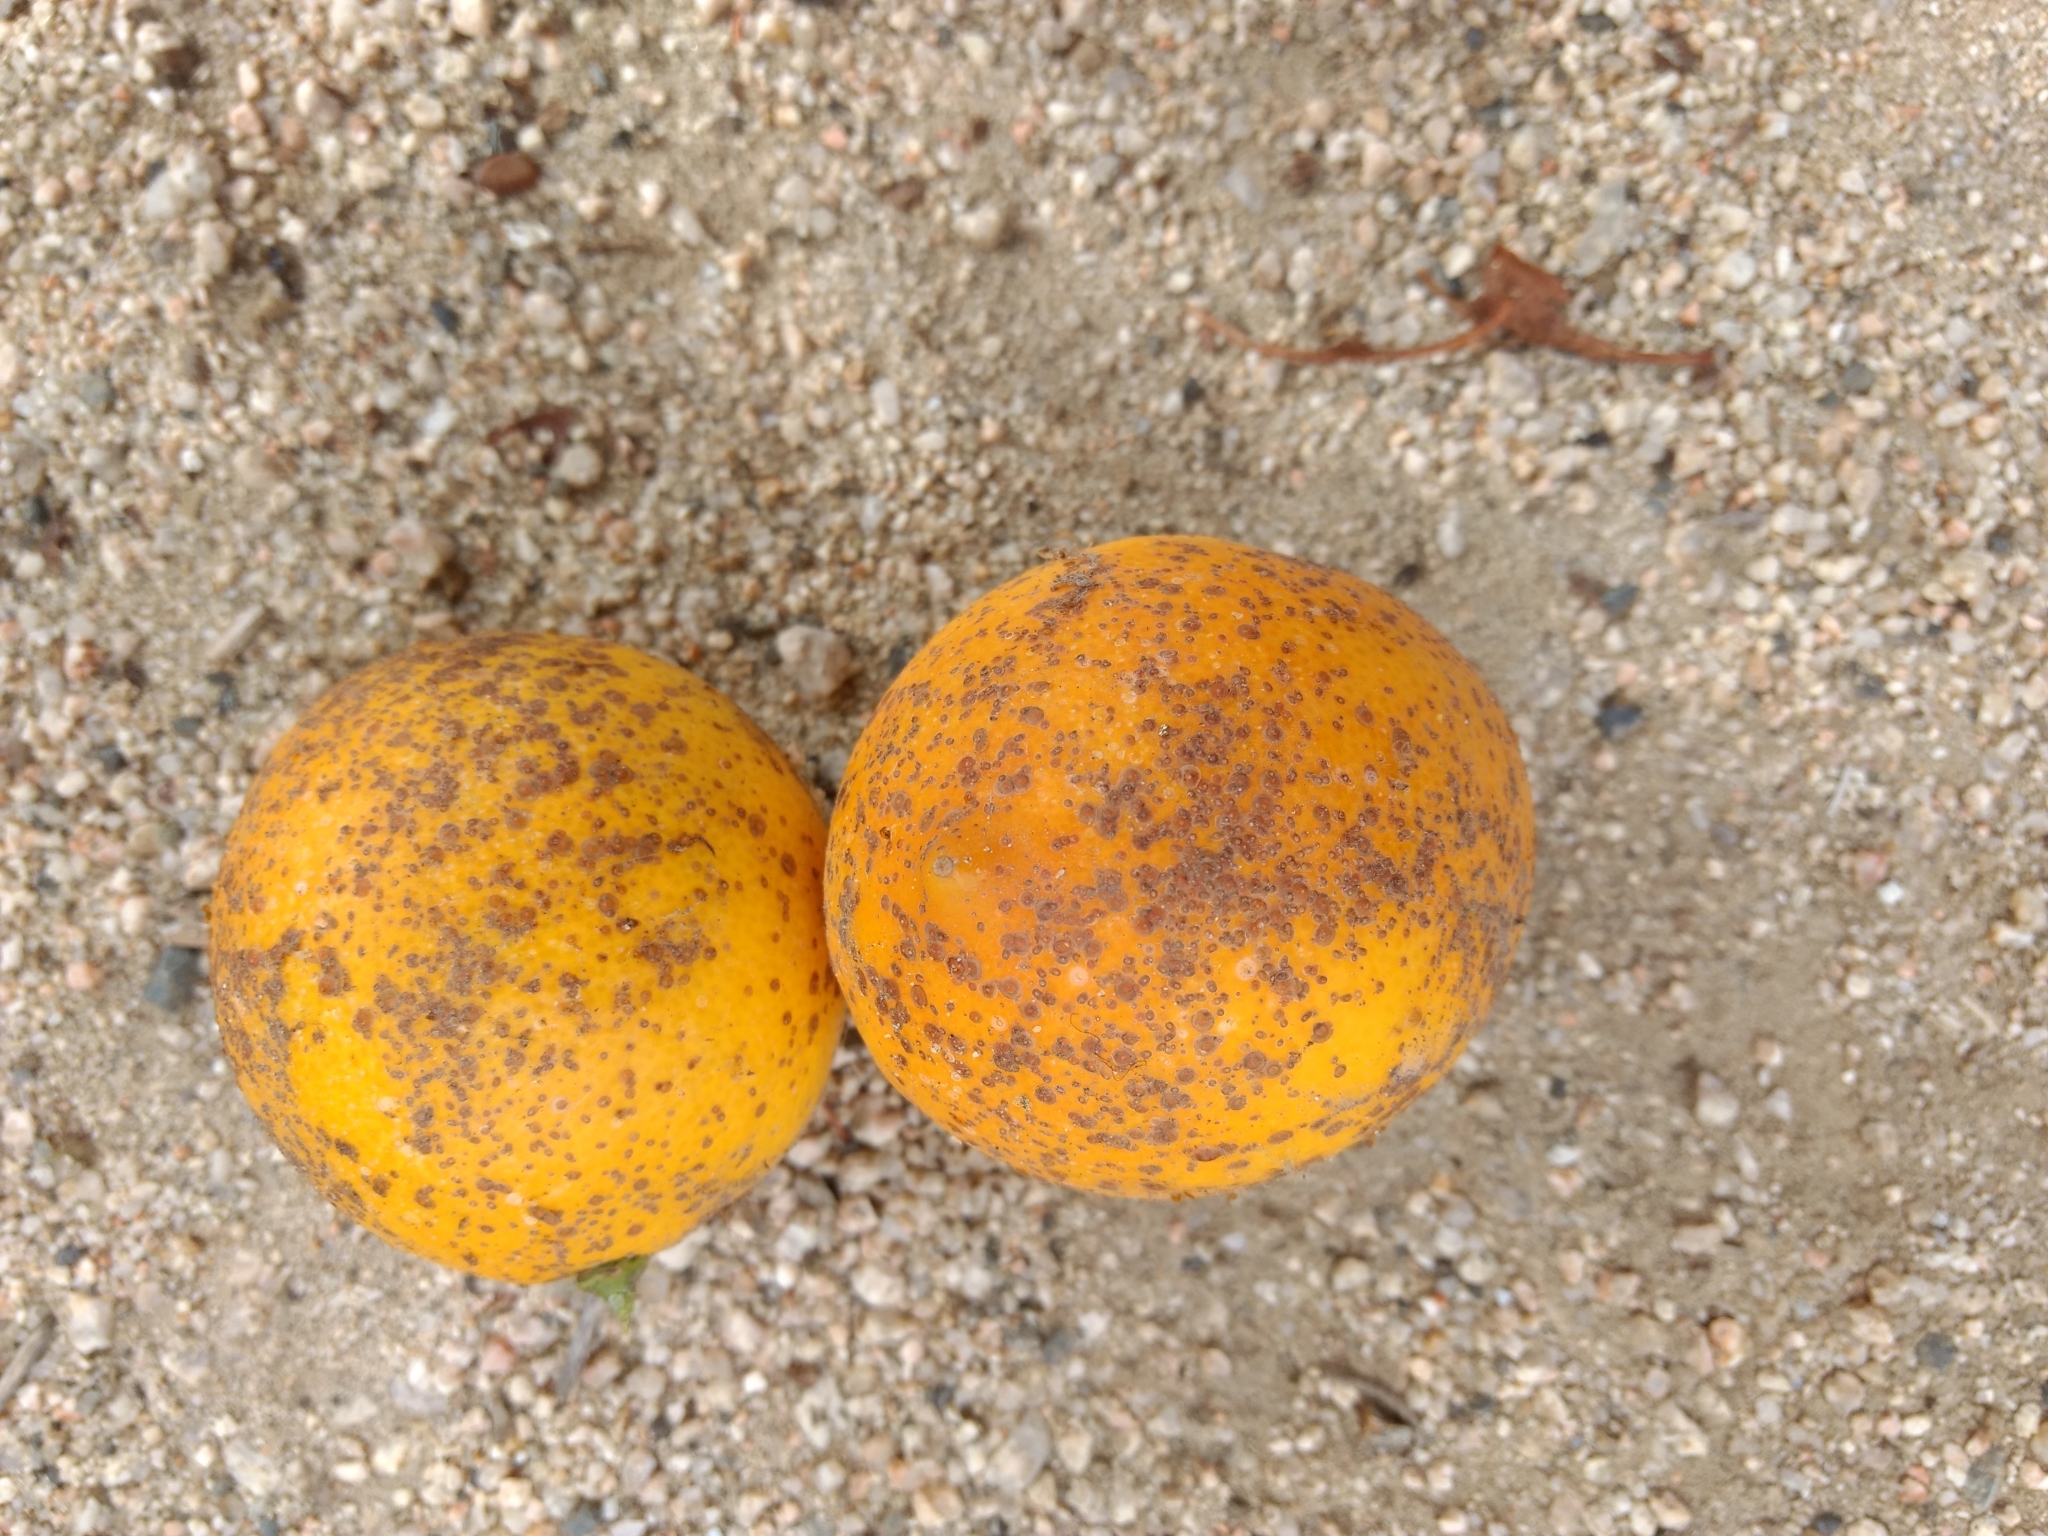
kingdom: Animalia
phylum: Arthropoda
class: Insecta
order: Hemiptera
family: Diaspididae
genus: Aonidiella
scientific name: Aonidiella aurantii
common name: California red scale
